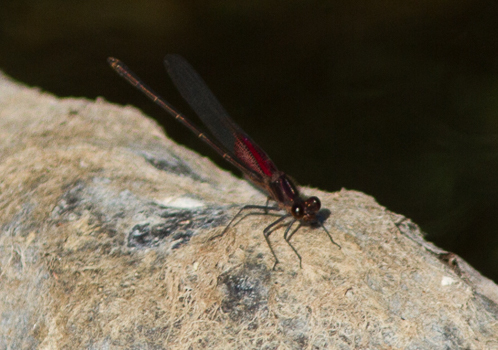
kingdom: Animalia
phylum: Arthropoda
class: Insecta
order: Odonata
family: Calopterygidae
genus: Hetaerina
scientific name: Hetaerina americana
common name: American rubyspot
